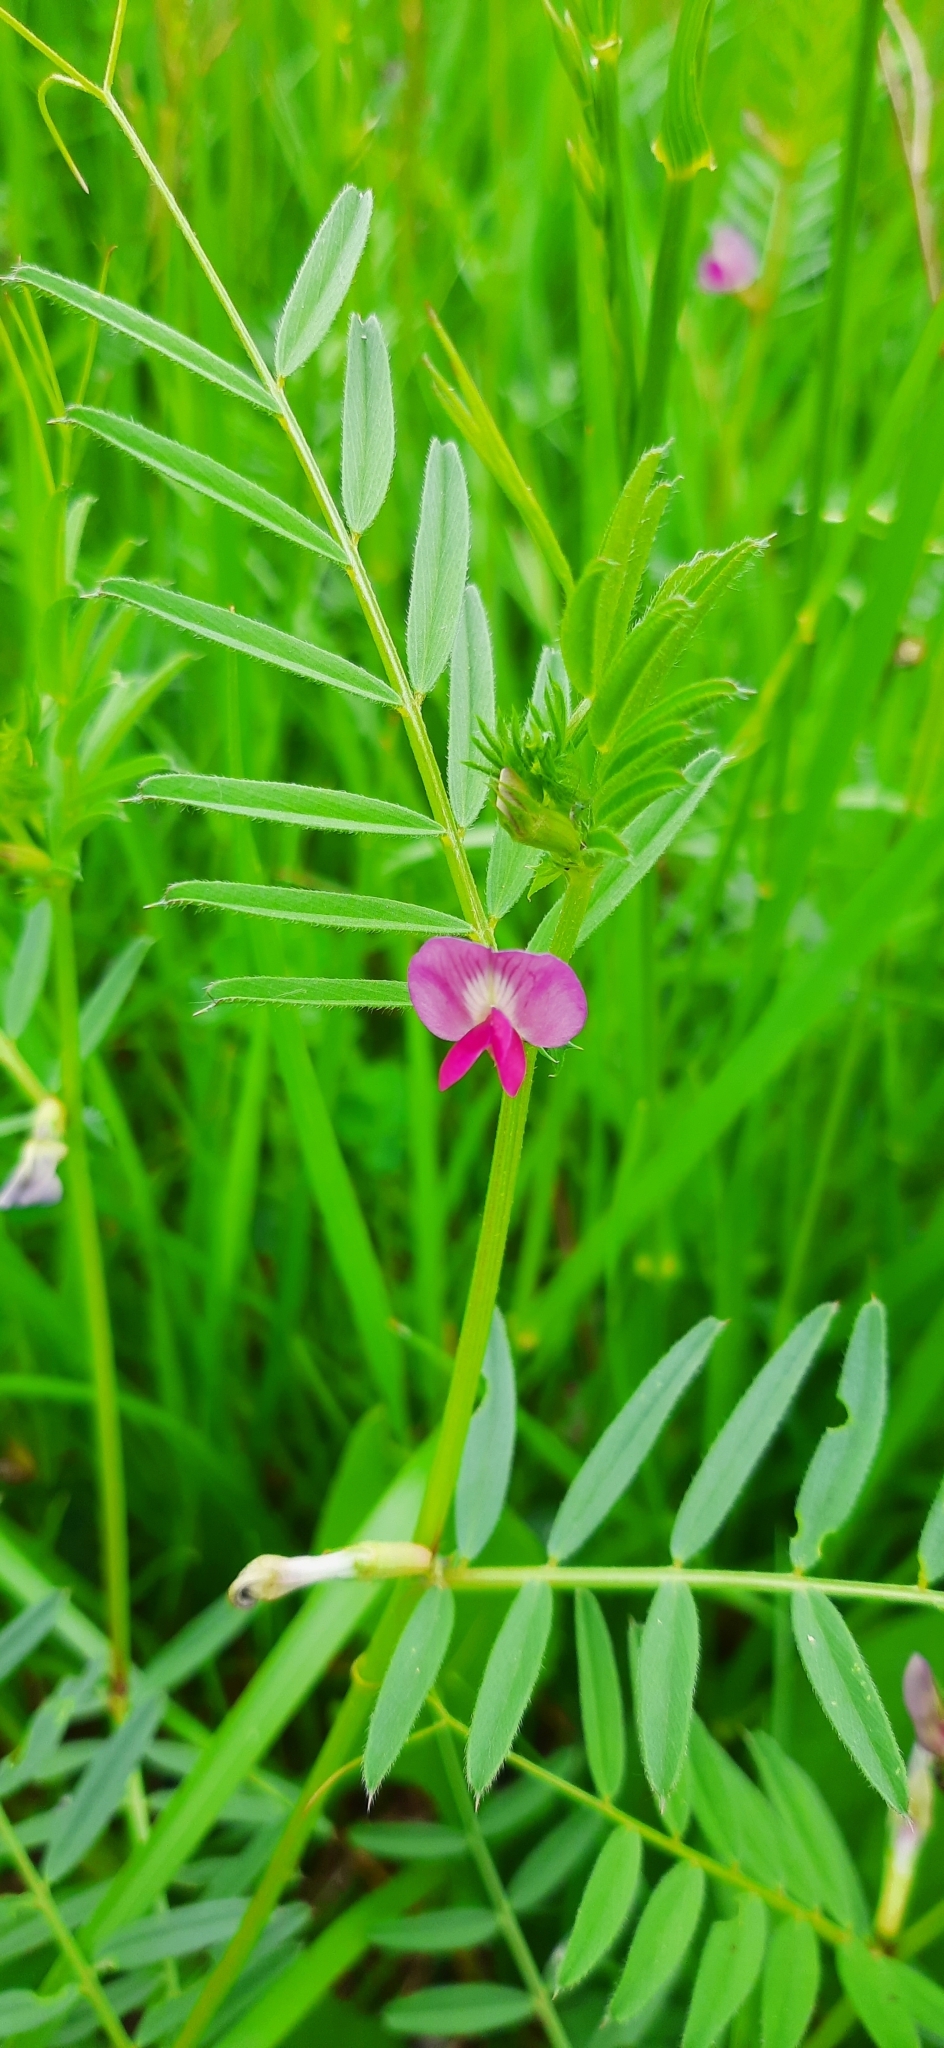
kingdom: Plantae
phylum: Tracheophyta
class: Magnoliopsida
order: Fabales
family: Fabaceae
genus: Vicia
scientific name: Vicia sativa
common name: Garden vetch
